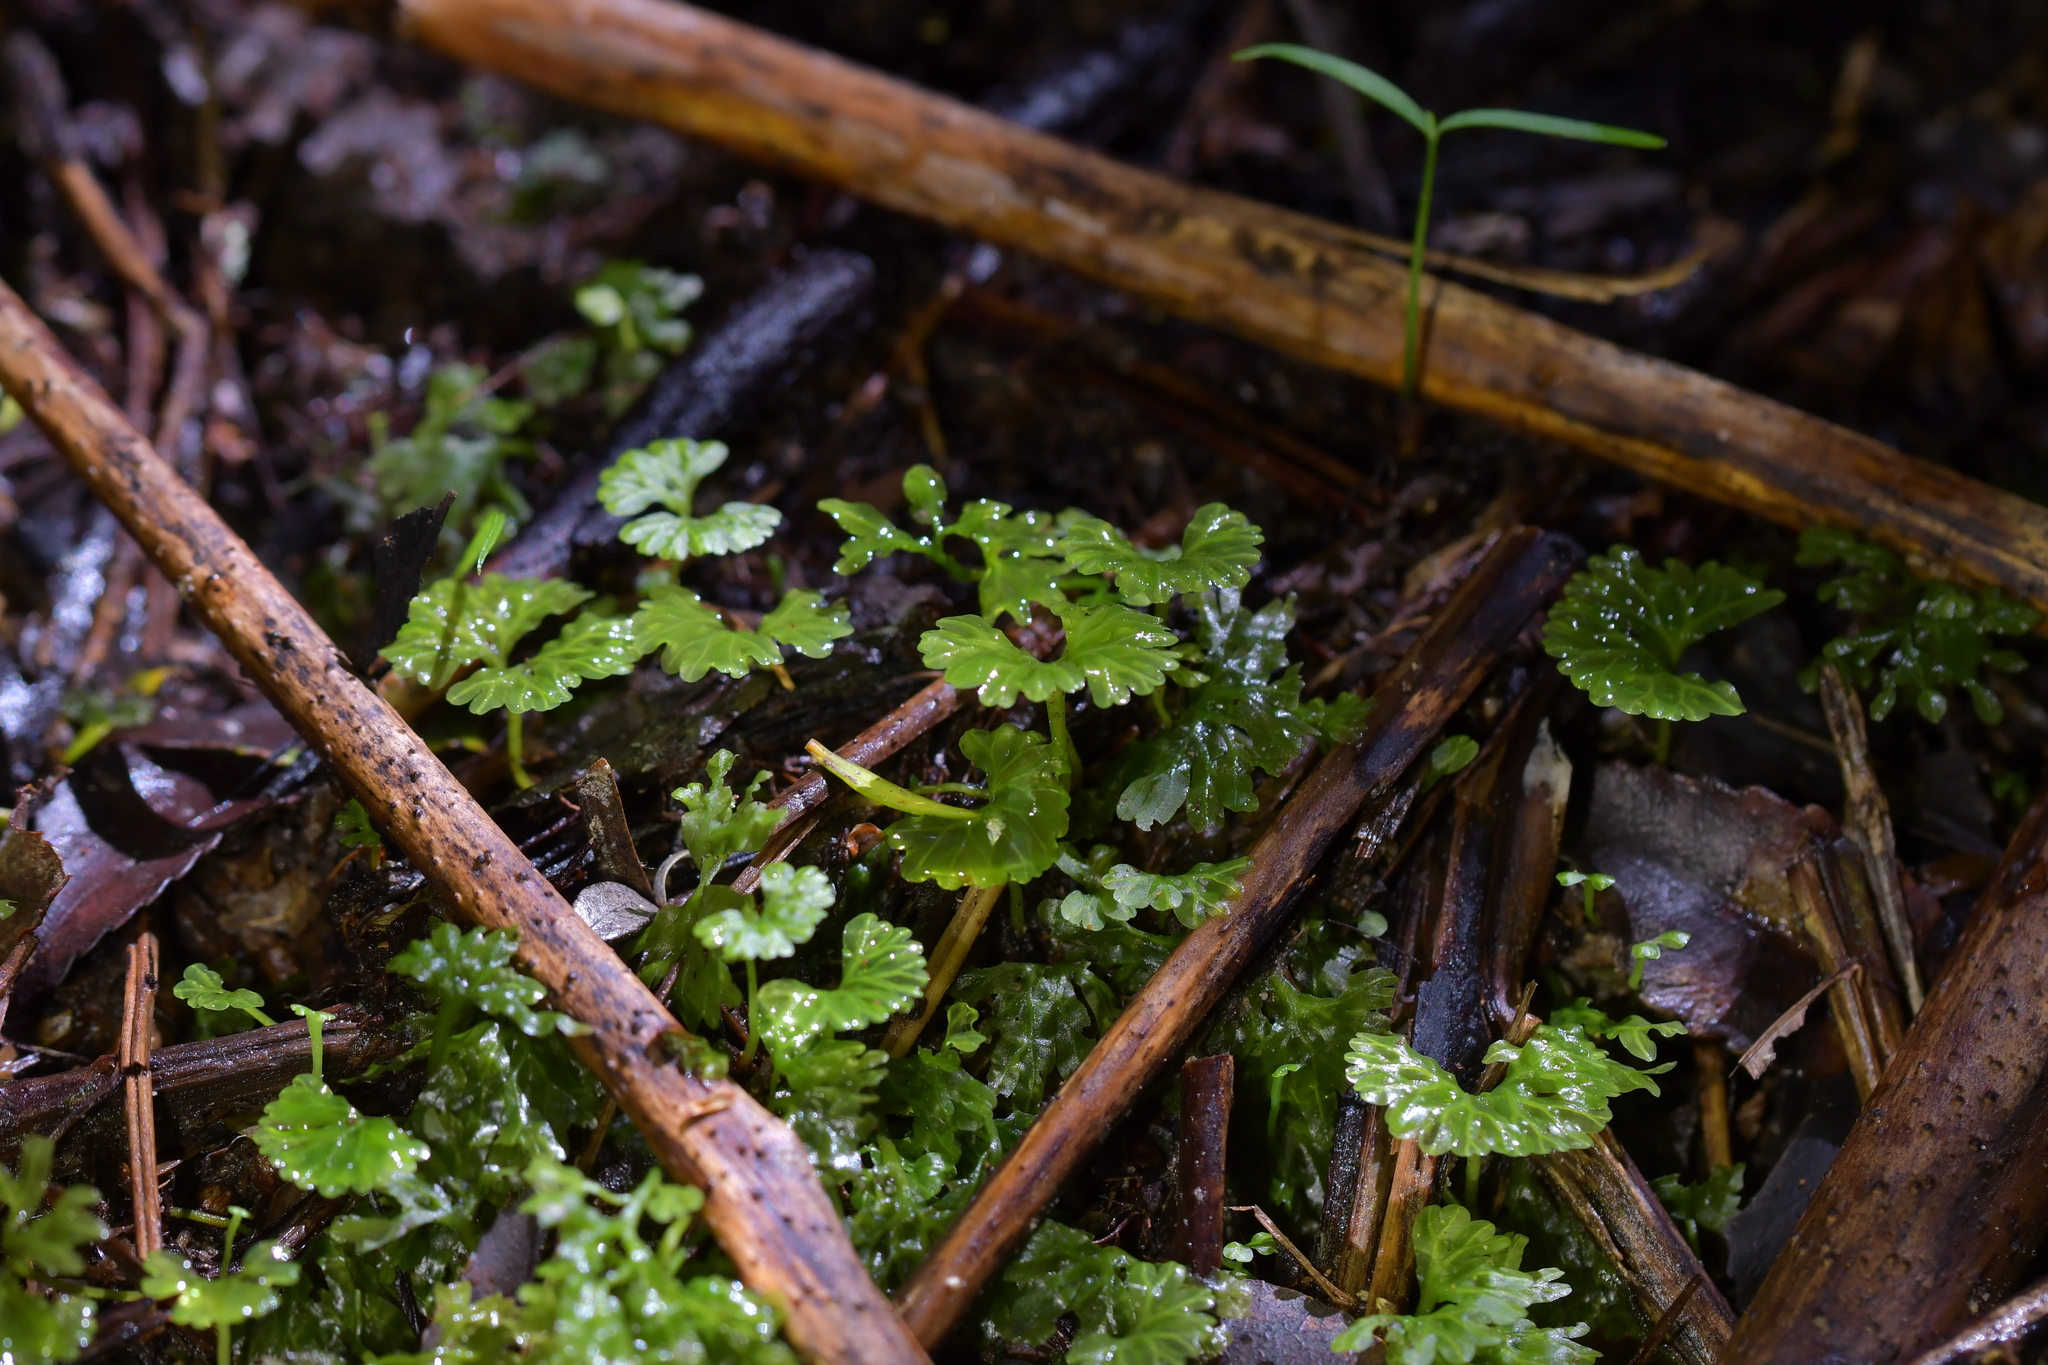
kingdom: Plantae
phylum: Marchantiophyta
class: Jungermanniopsida
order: Pallaviciniales
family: Hymenophytaceae
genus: Hymenophyton
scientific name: Hymenophyton flabellatum
